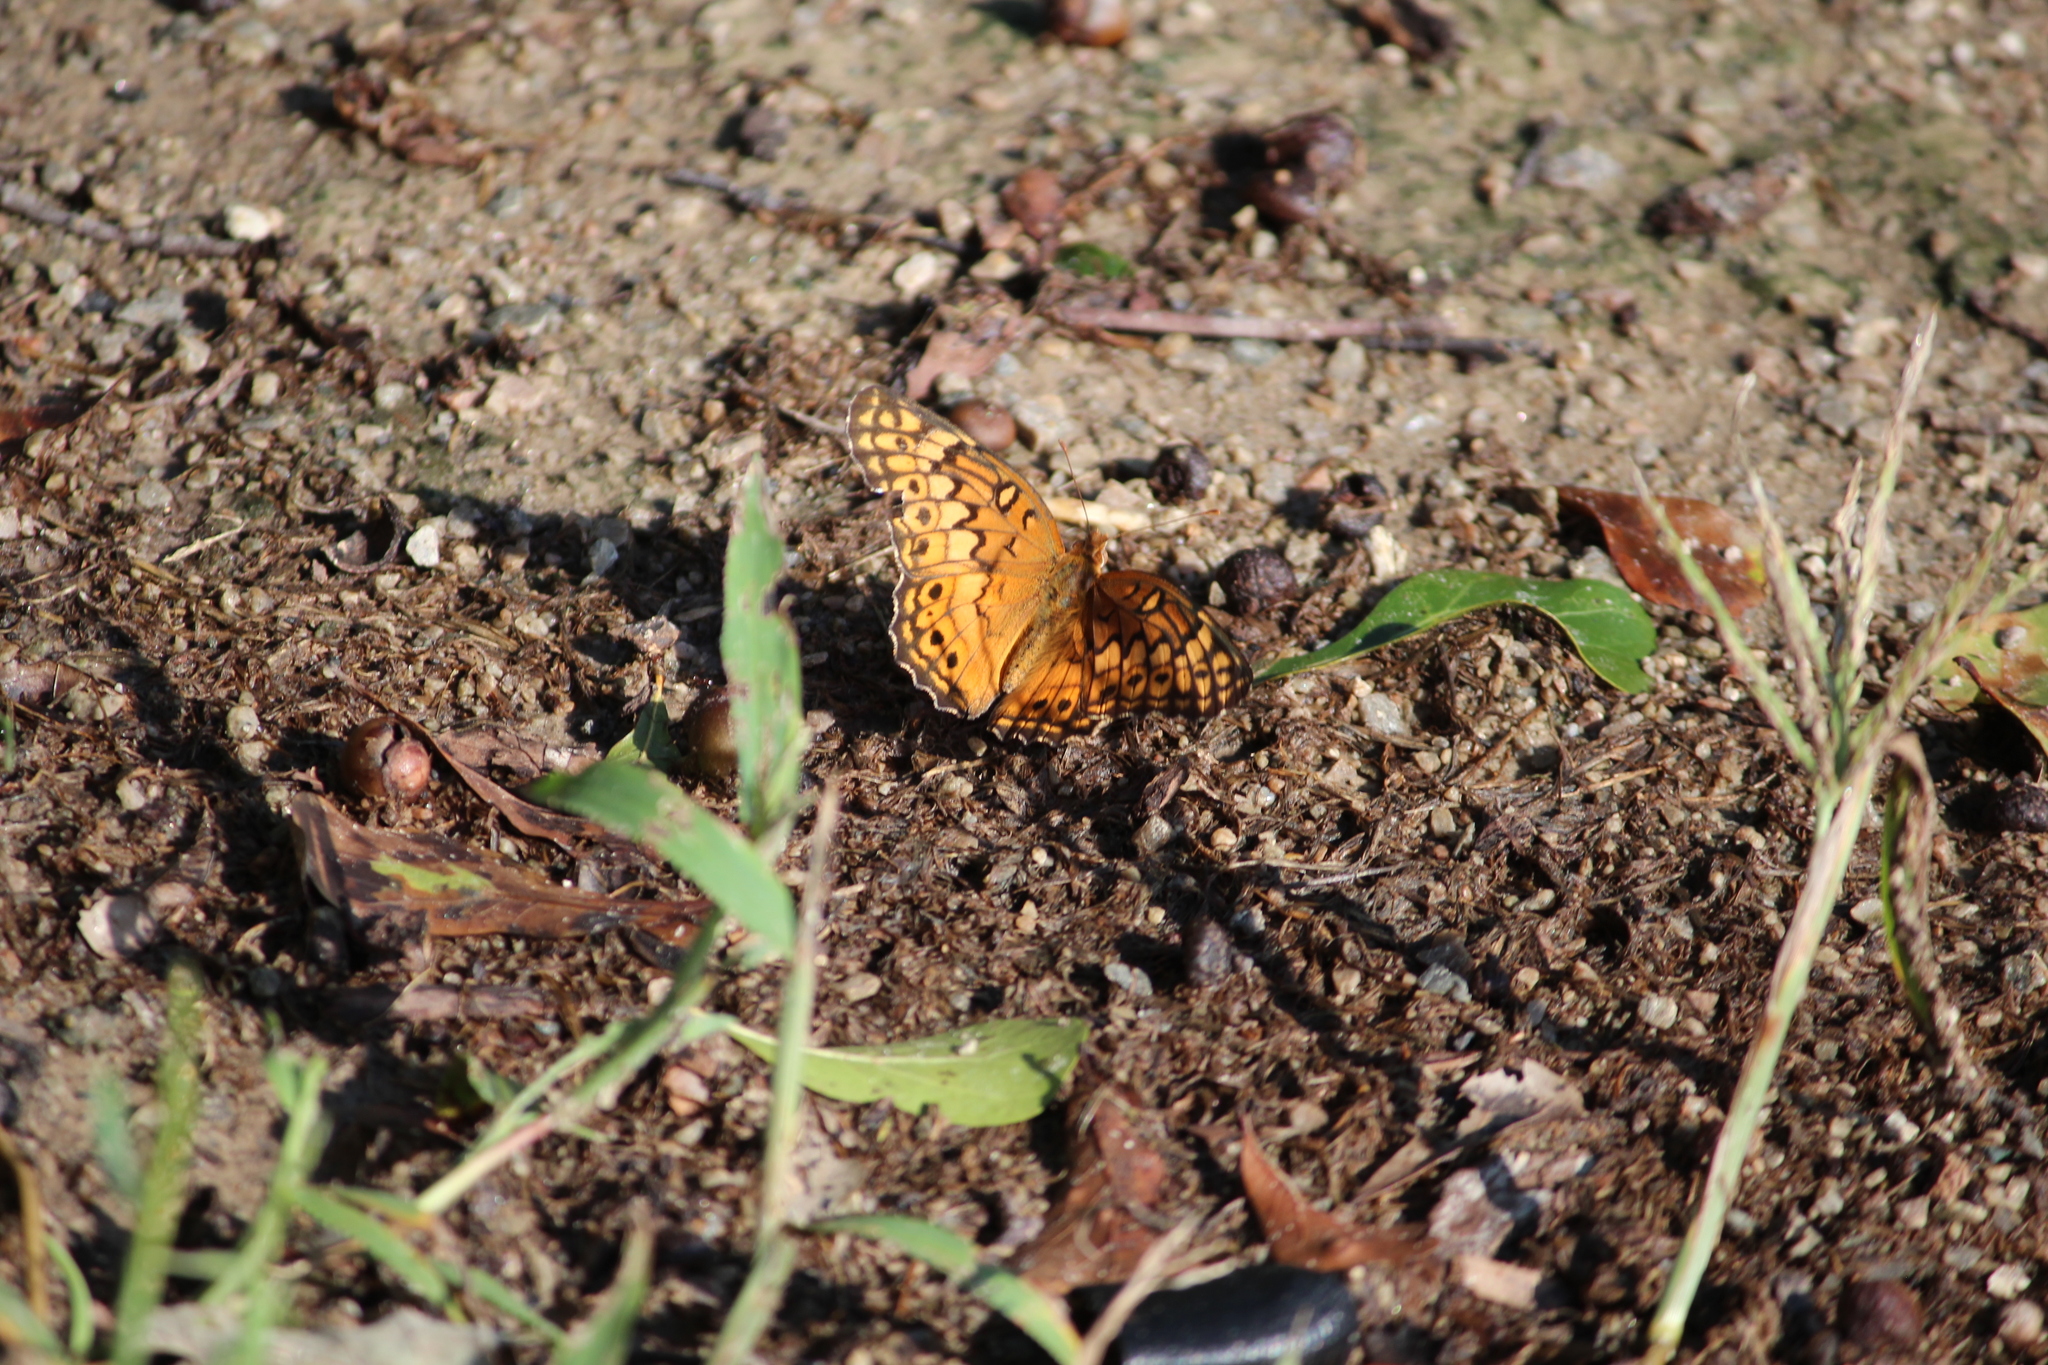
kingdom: Animalia
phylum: Arthropoda
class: Insecta
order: Lepidoptera
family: Nymphalidae
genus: Euptoieta
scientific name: Euptoieta claudia
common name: Variegated fritillary
